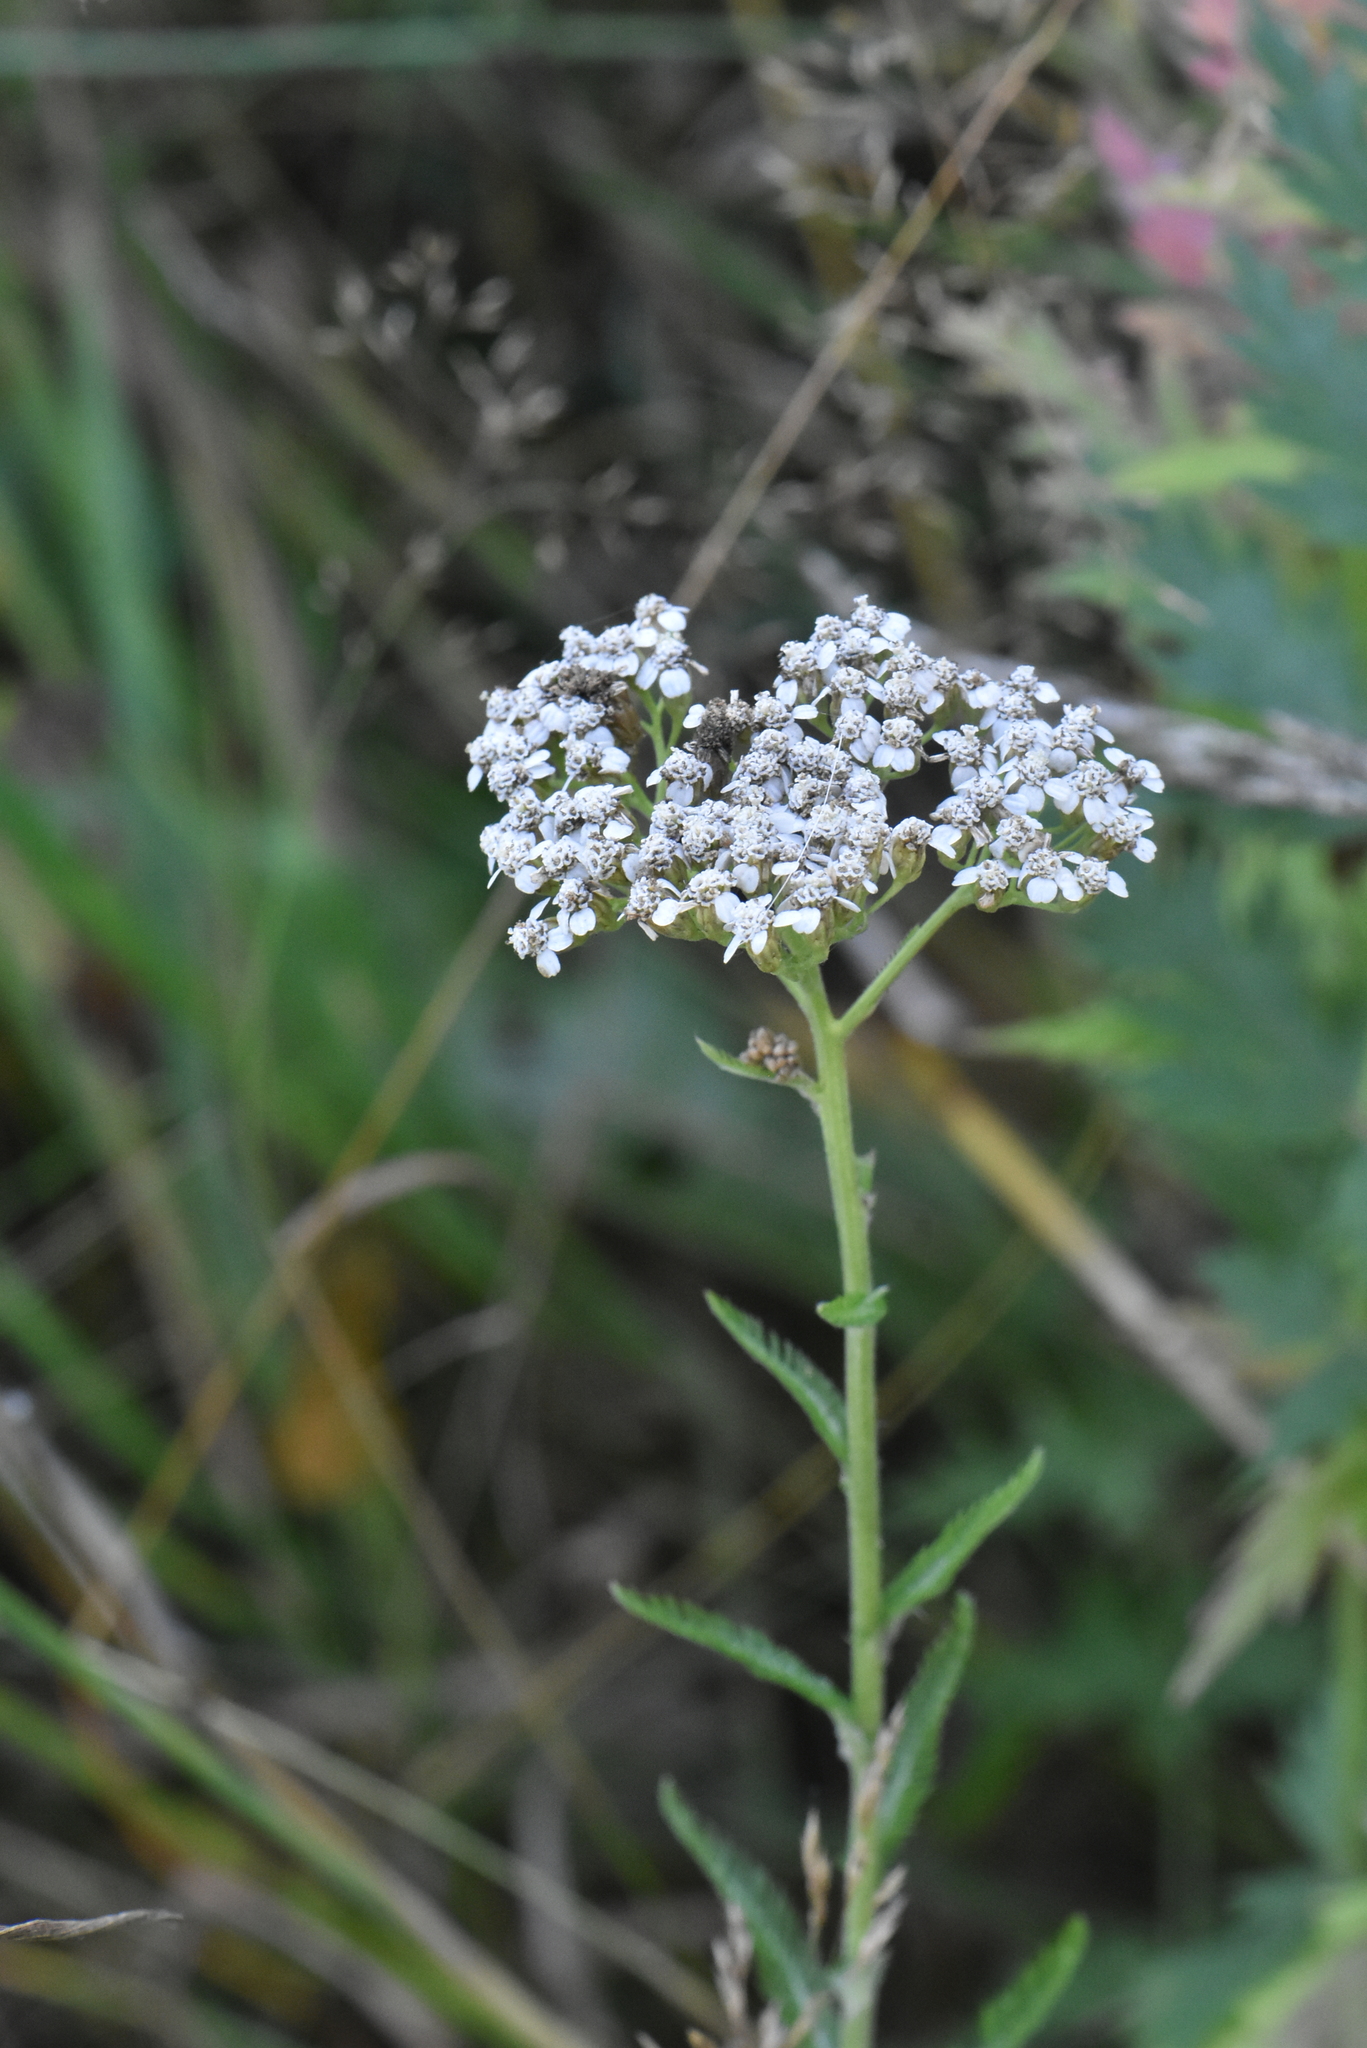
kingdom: Plantae
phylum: Tracheophyta
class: Magnoliopsida
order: Asterales
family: Asteraceae
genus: Achillea
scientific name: Achillea millefolium
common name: Yarrow
